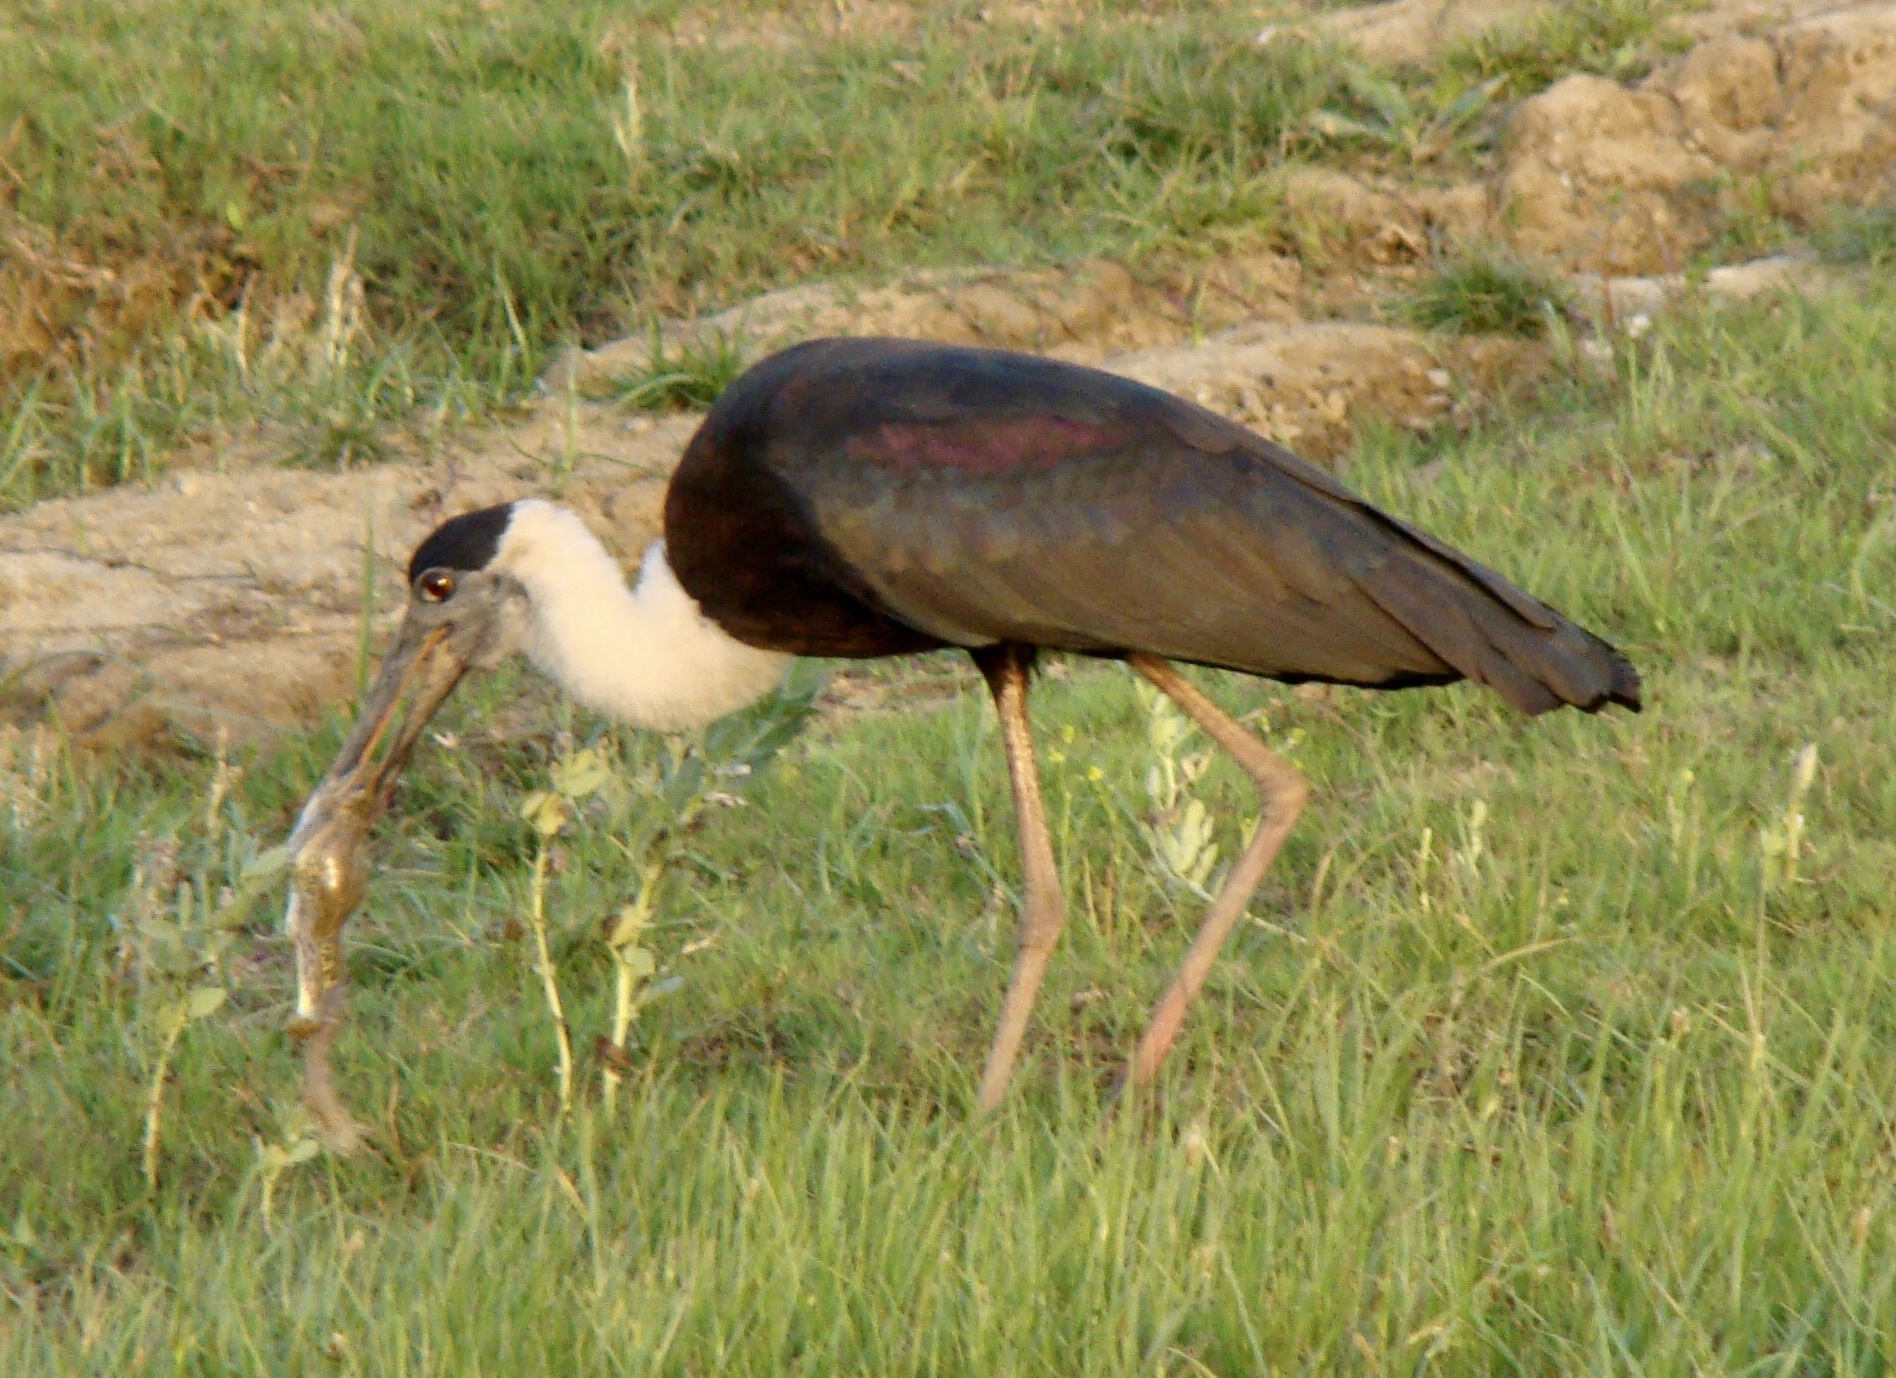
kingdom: Animalia
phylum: Chordata
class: Aves
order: Ciconiiformes
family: Ciconiidae
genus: Ciconia
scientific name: Ciconia episcopus
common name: Woolly-necked stork
